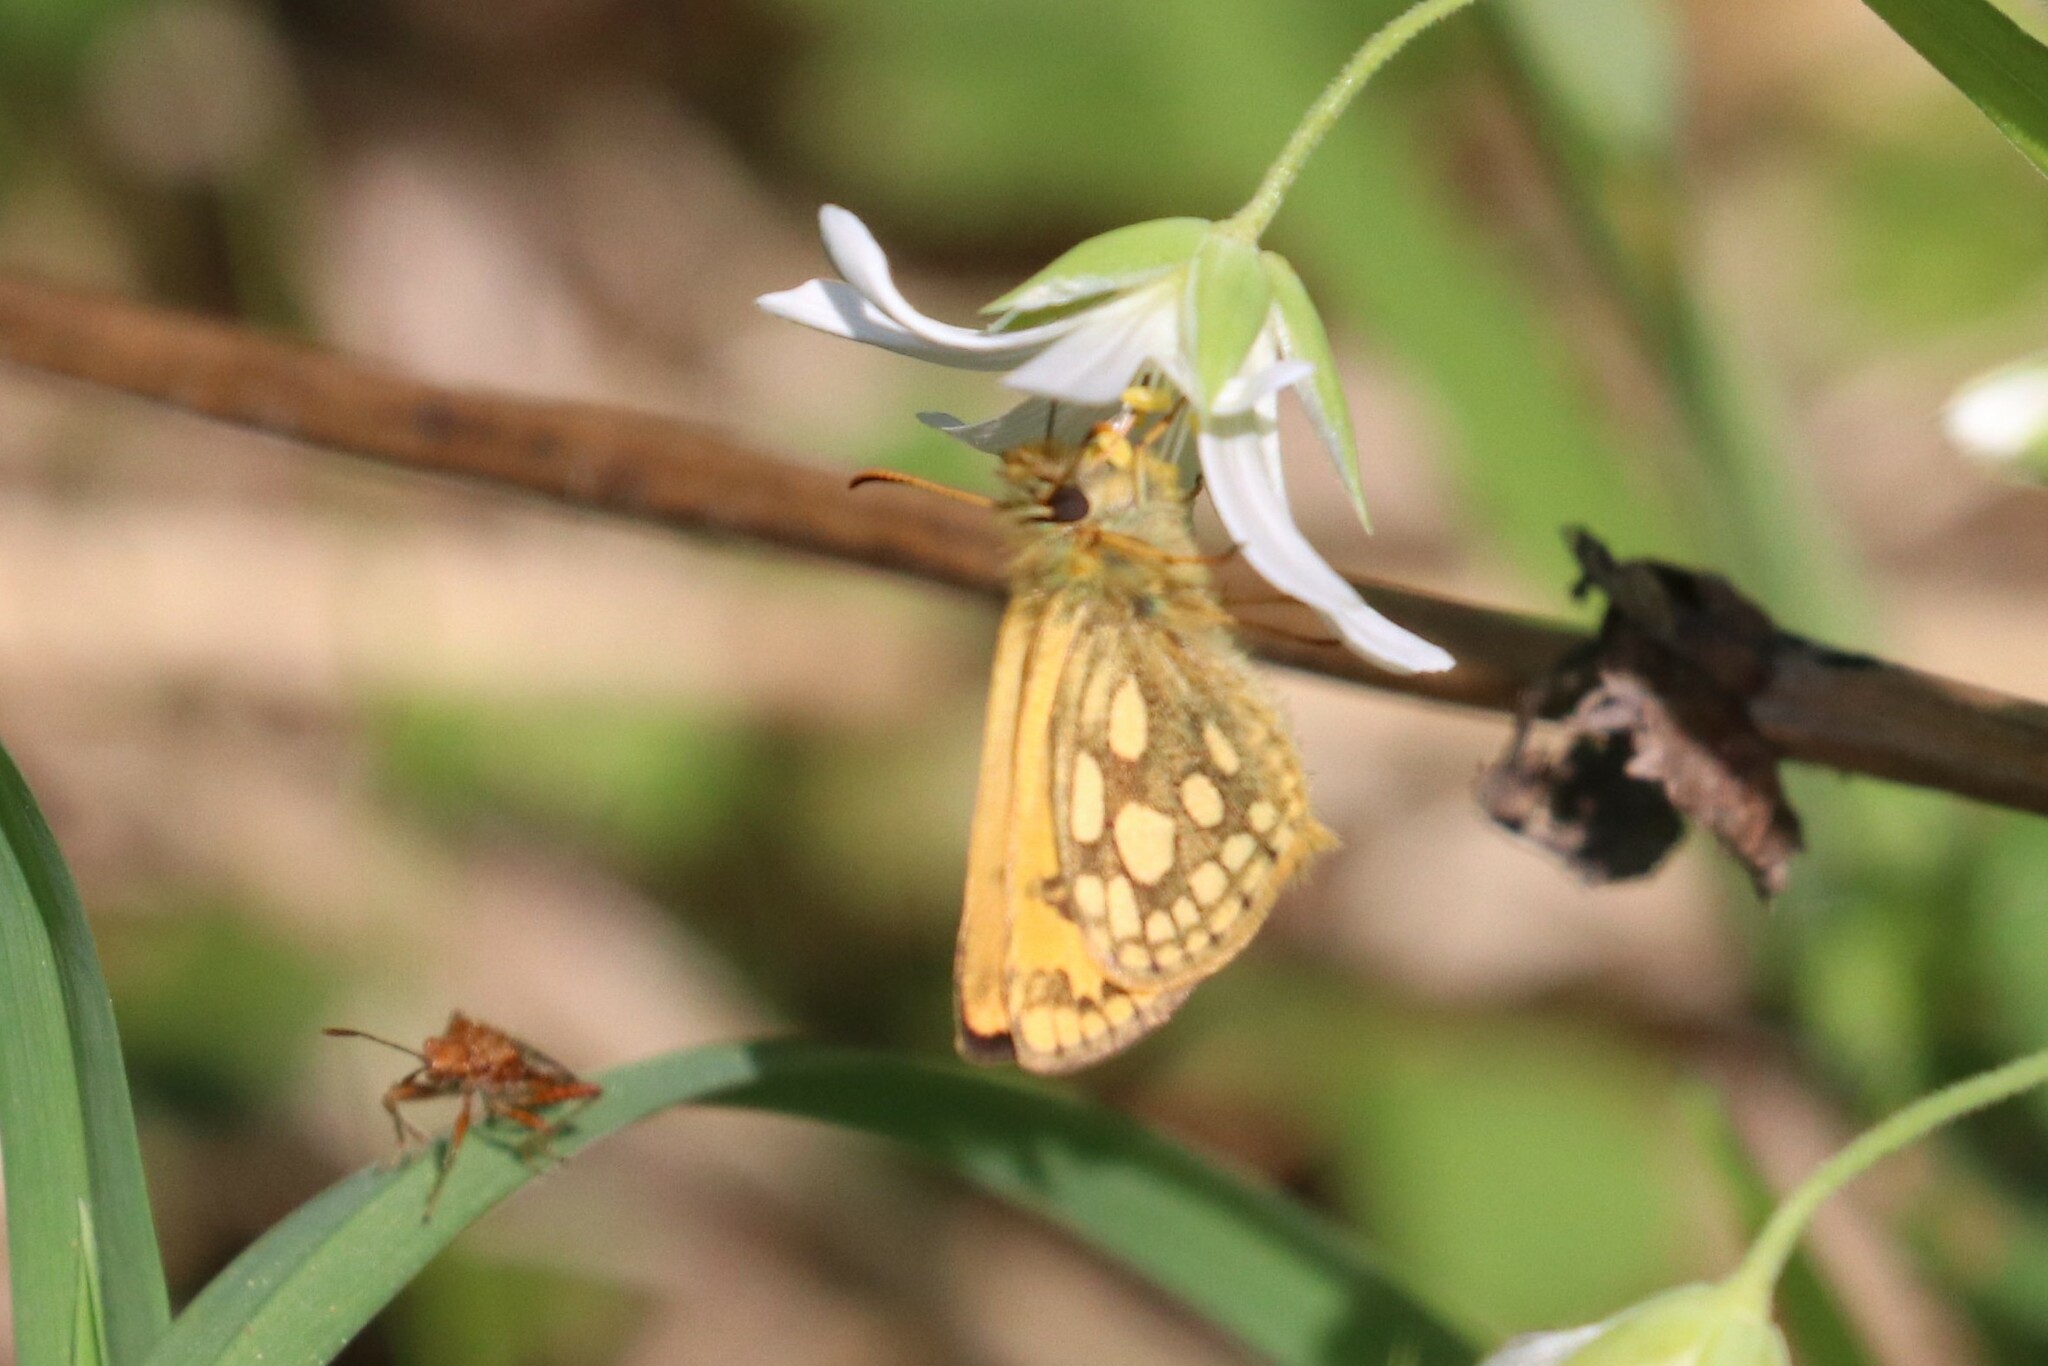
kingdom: Animalia
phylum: Arthropoda
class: Insecta
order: Lepidoptera
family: Hesperiidae
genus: Carterocephalus
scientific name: Carterocephalus silvicola
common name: Northern chequered skipper
